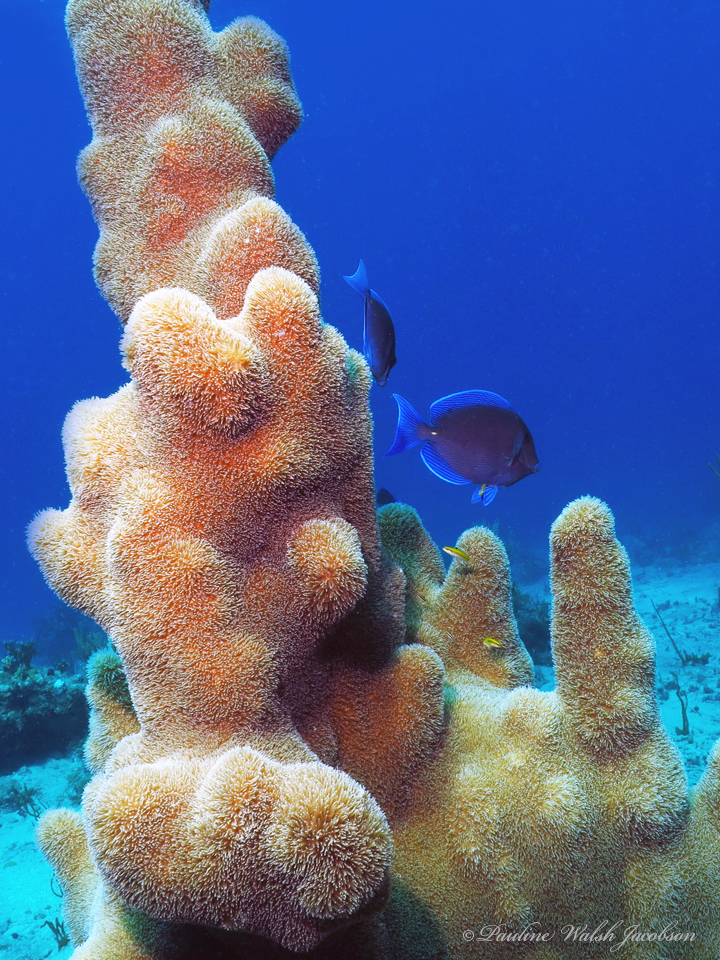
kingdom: Animalia
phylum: Cnidaria
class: Anthozoa
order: Scleractinia
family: Meandrinidae
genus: Dendrogyra
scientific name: Dendrogyra cylindrus
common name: Pillar coral
